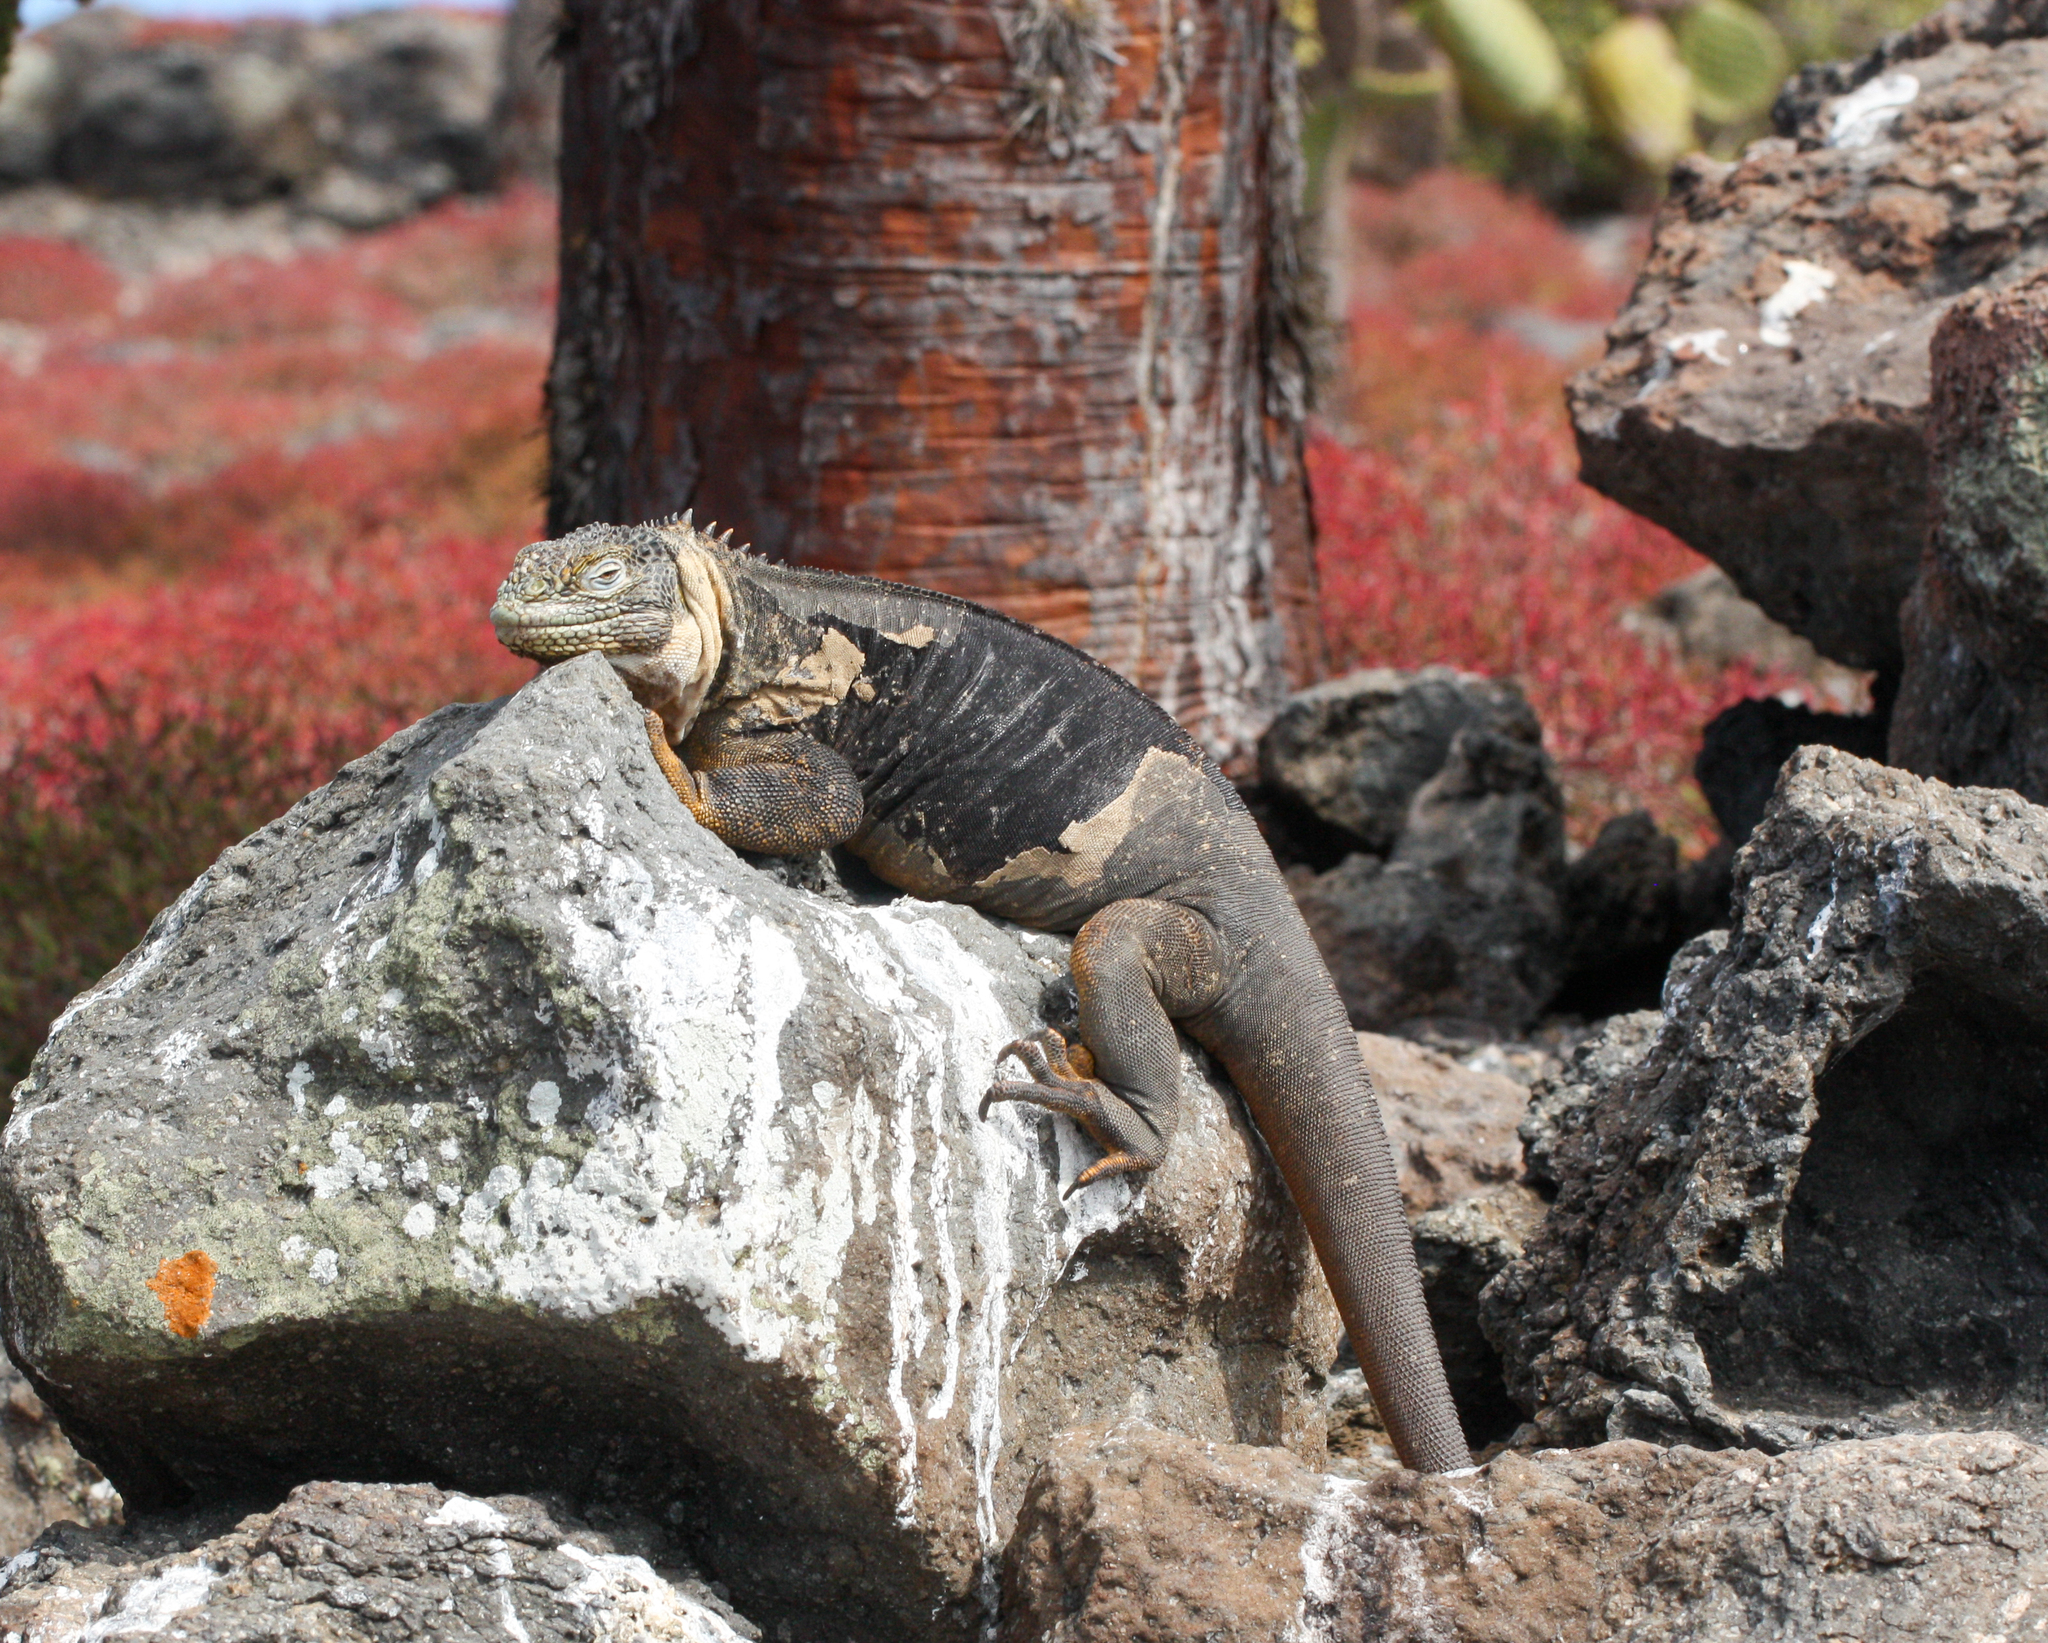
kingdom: Animalia
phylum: Chordata
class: Squamata
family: Iguanidae
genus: Conolophus
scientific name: Conolophus subcristatus
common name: Galapagos land iguana
